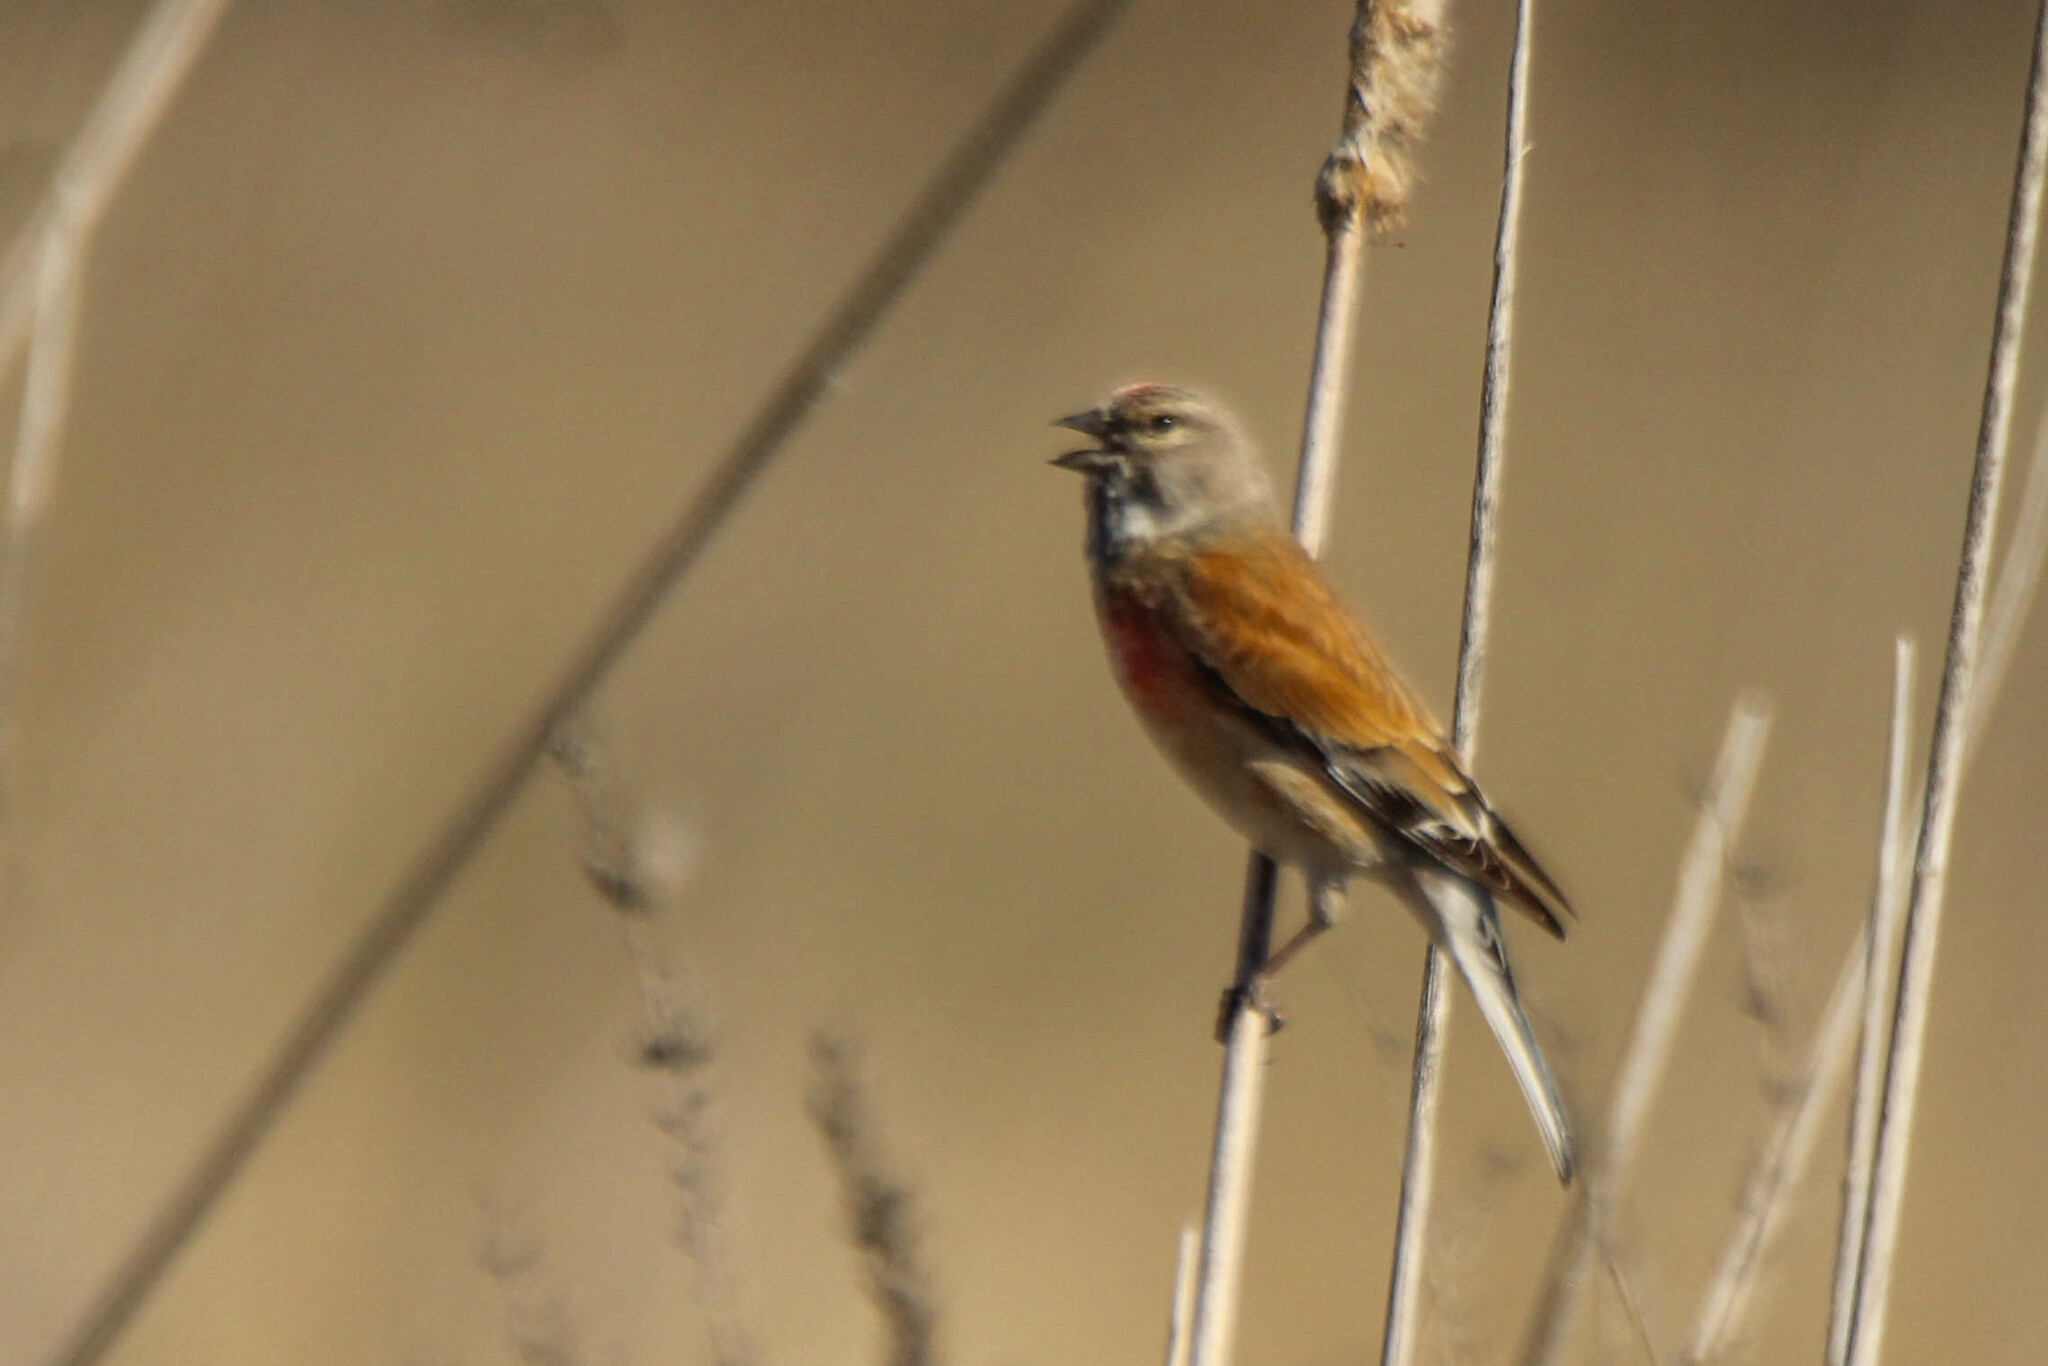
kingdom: Animalia
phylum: Chordata
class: Aves
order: Passeriformes
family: Fringillidae
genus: Linaria
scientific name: Linaria cannabina
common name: Common linnet
